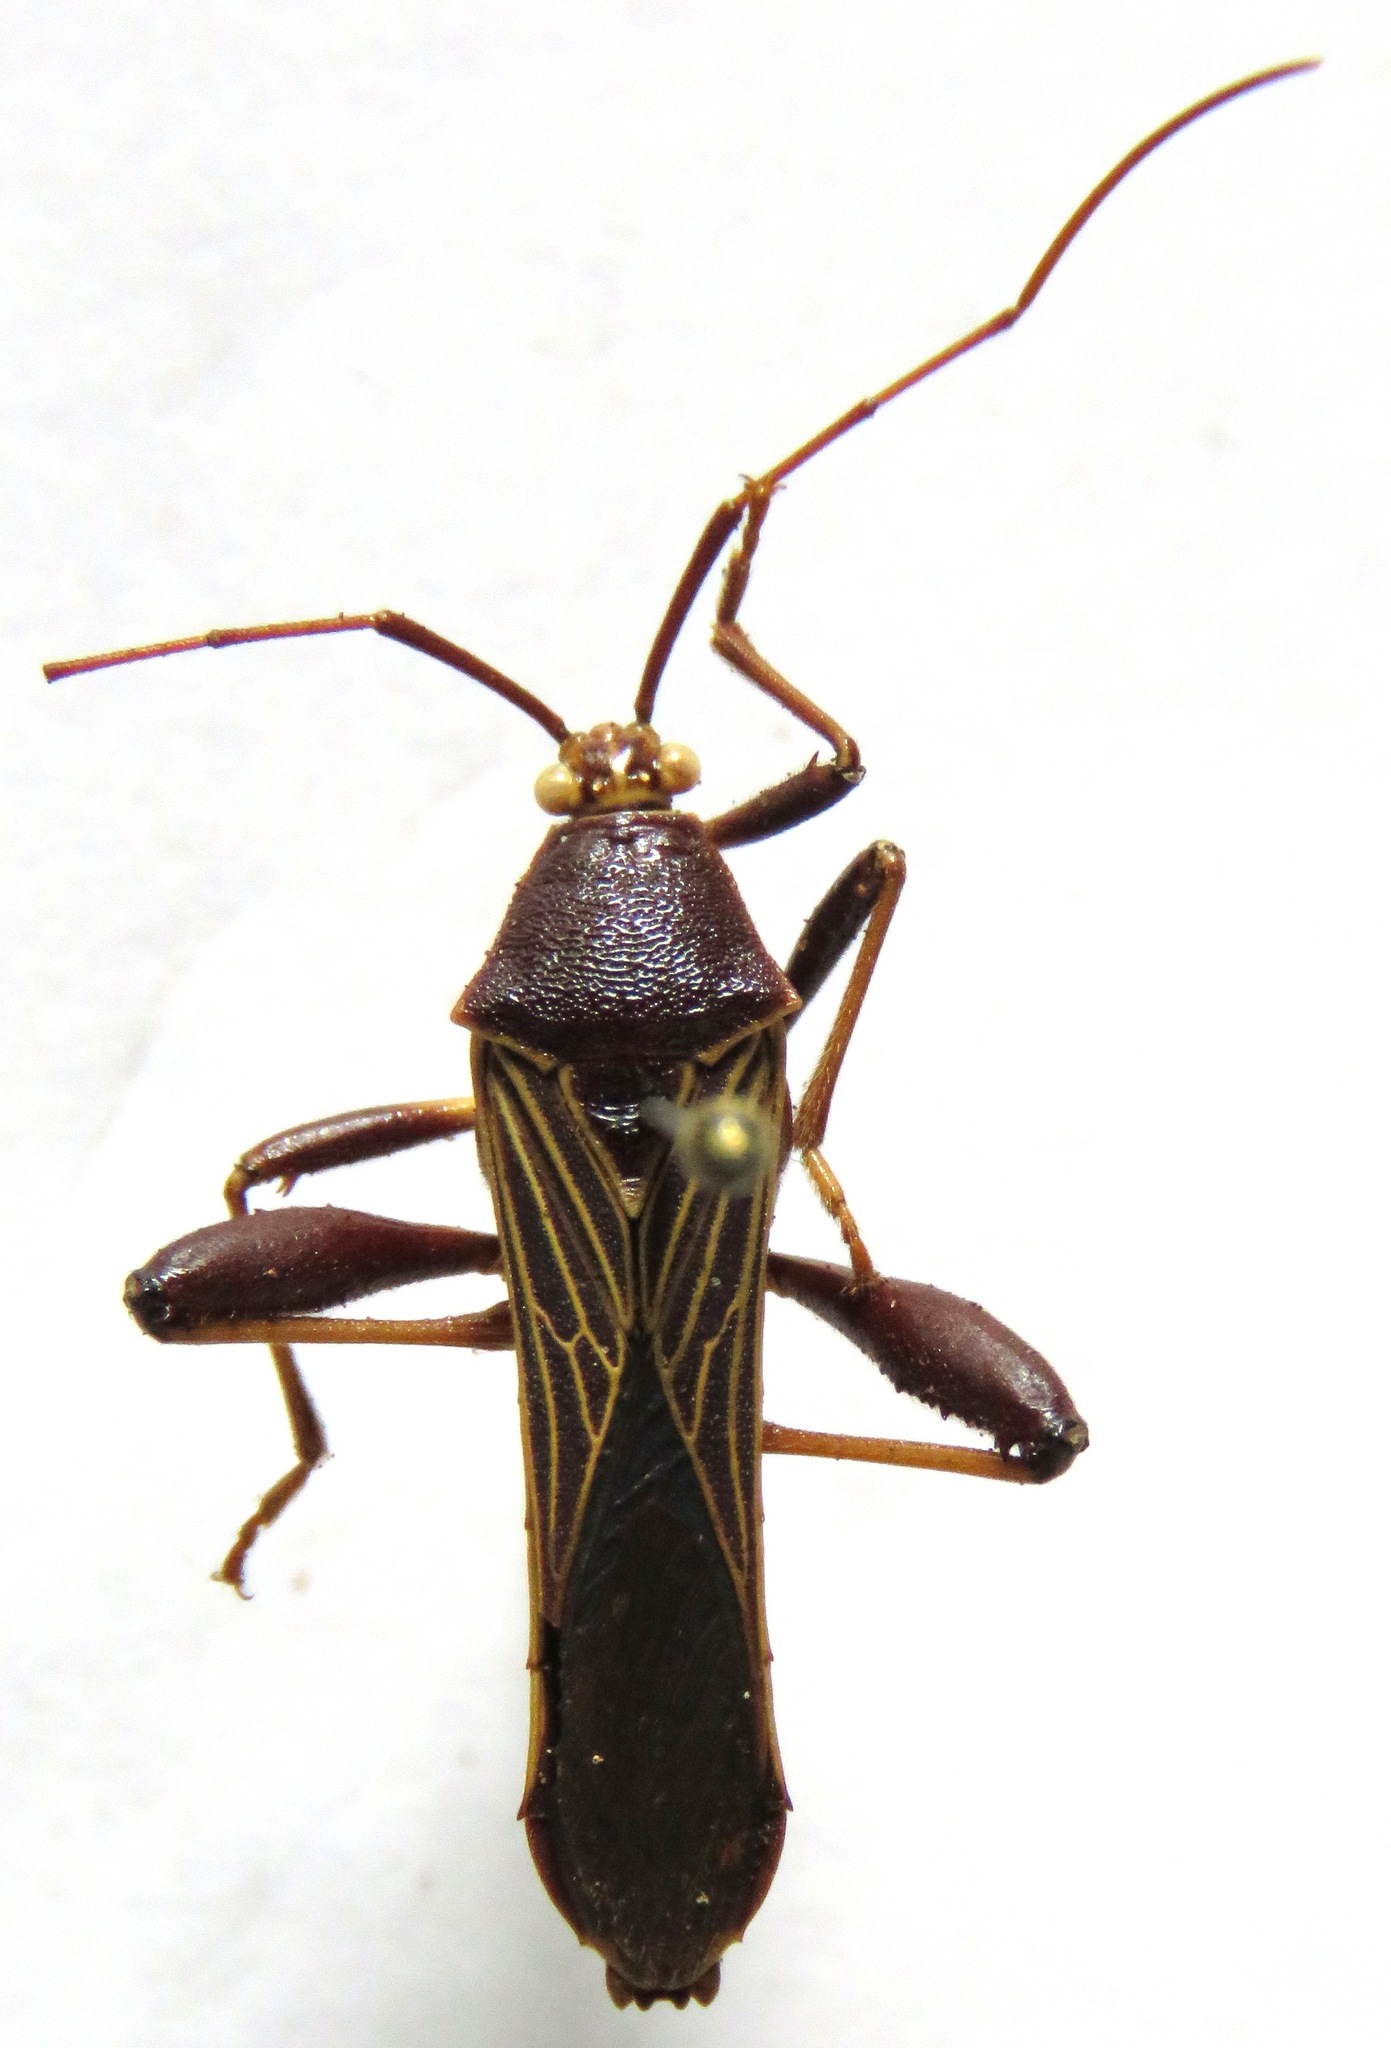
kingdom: Animalia
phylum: Arthropoda
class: Insecta
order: Hemiptera
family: Coreidae
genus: Grammopoecilus
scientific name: Grammopoecilus angustatus
